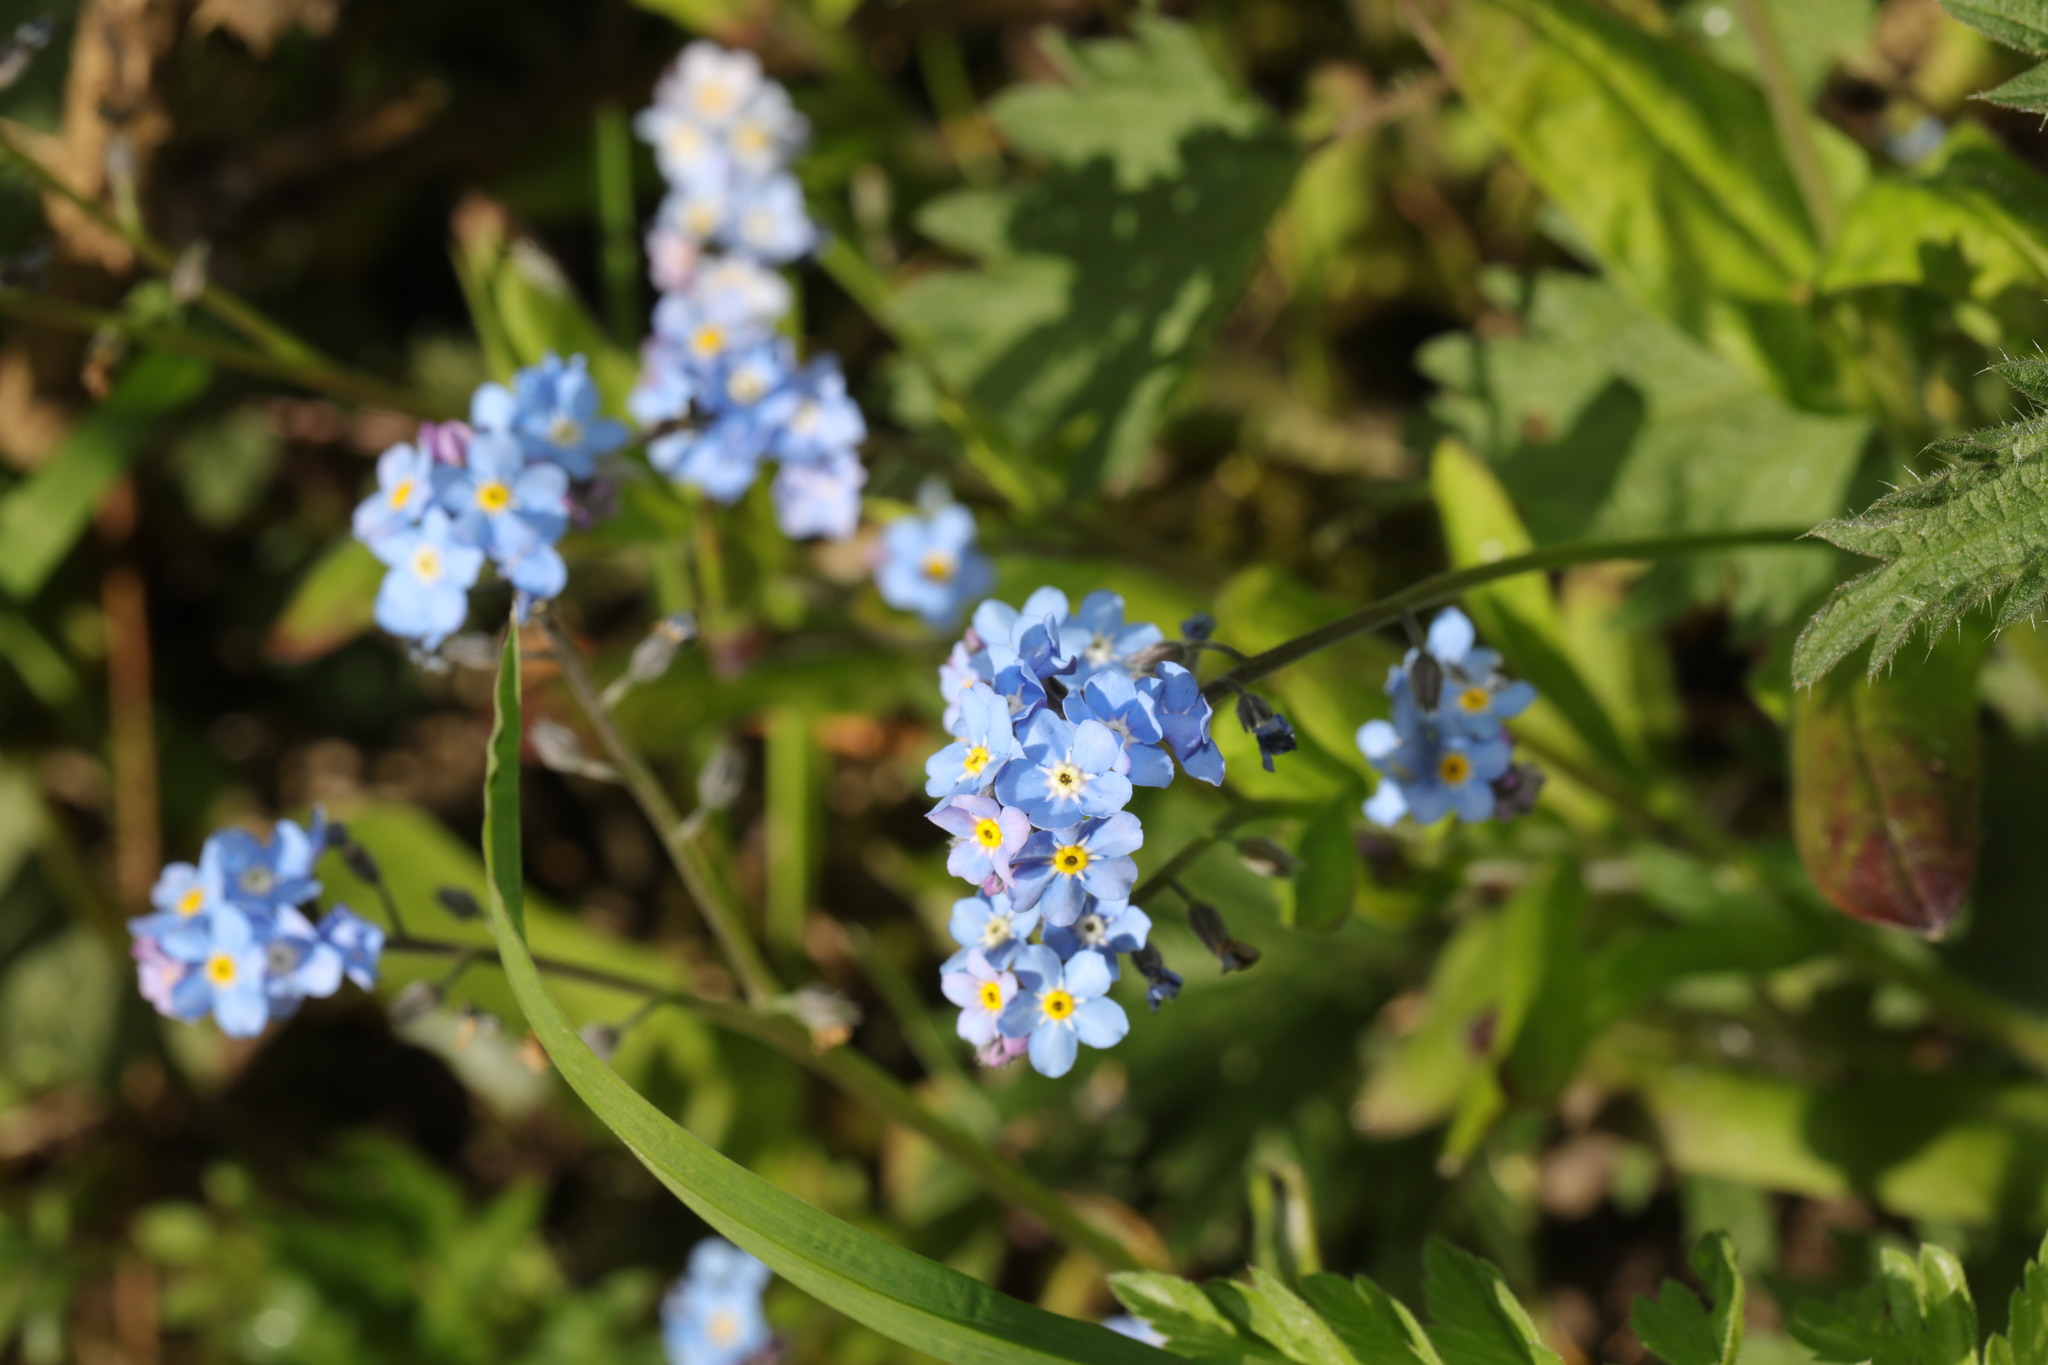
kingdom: Plantae
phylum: Tracheophyta
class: Magnoliopsida
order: Boraginales
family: Boraginaceae
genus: Myosotis
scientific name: Myosotis sylvatica
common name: Wood forget-me-not
